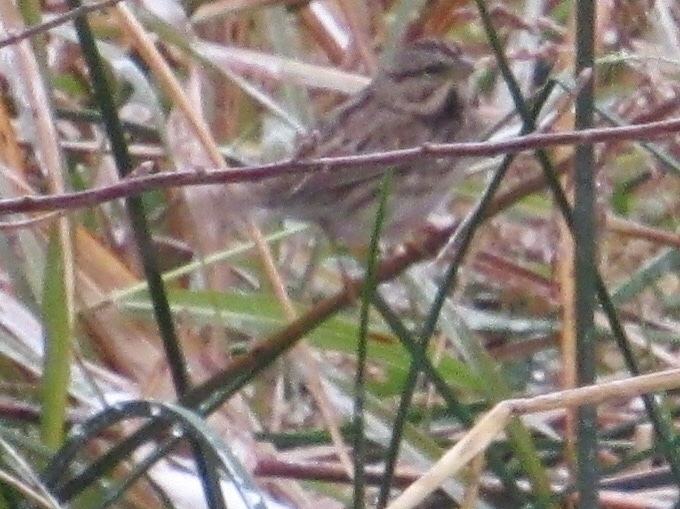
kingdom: Animalia
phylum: Chordata
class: Aves
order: Passeriformes
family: Passerellidae
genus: Melospiza
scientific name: Melospiza melodia
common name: Song sparrow
